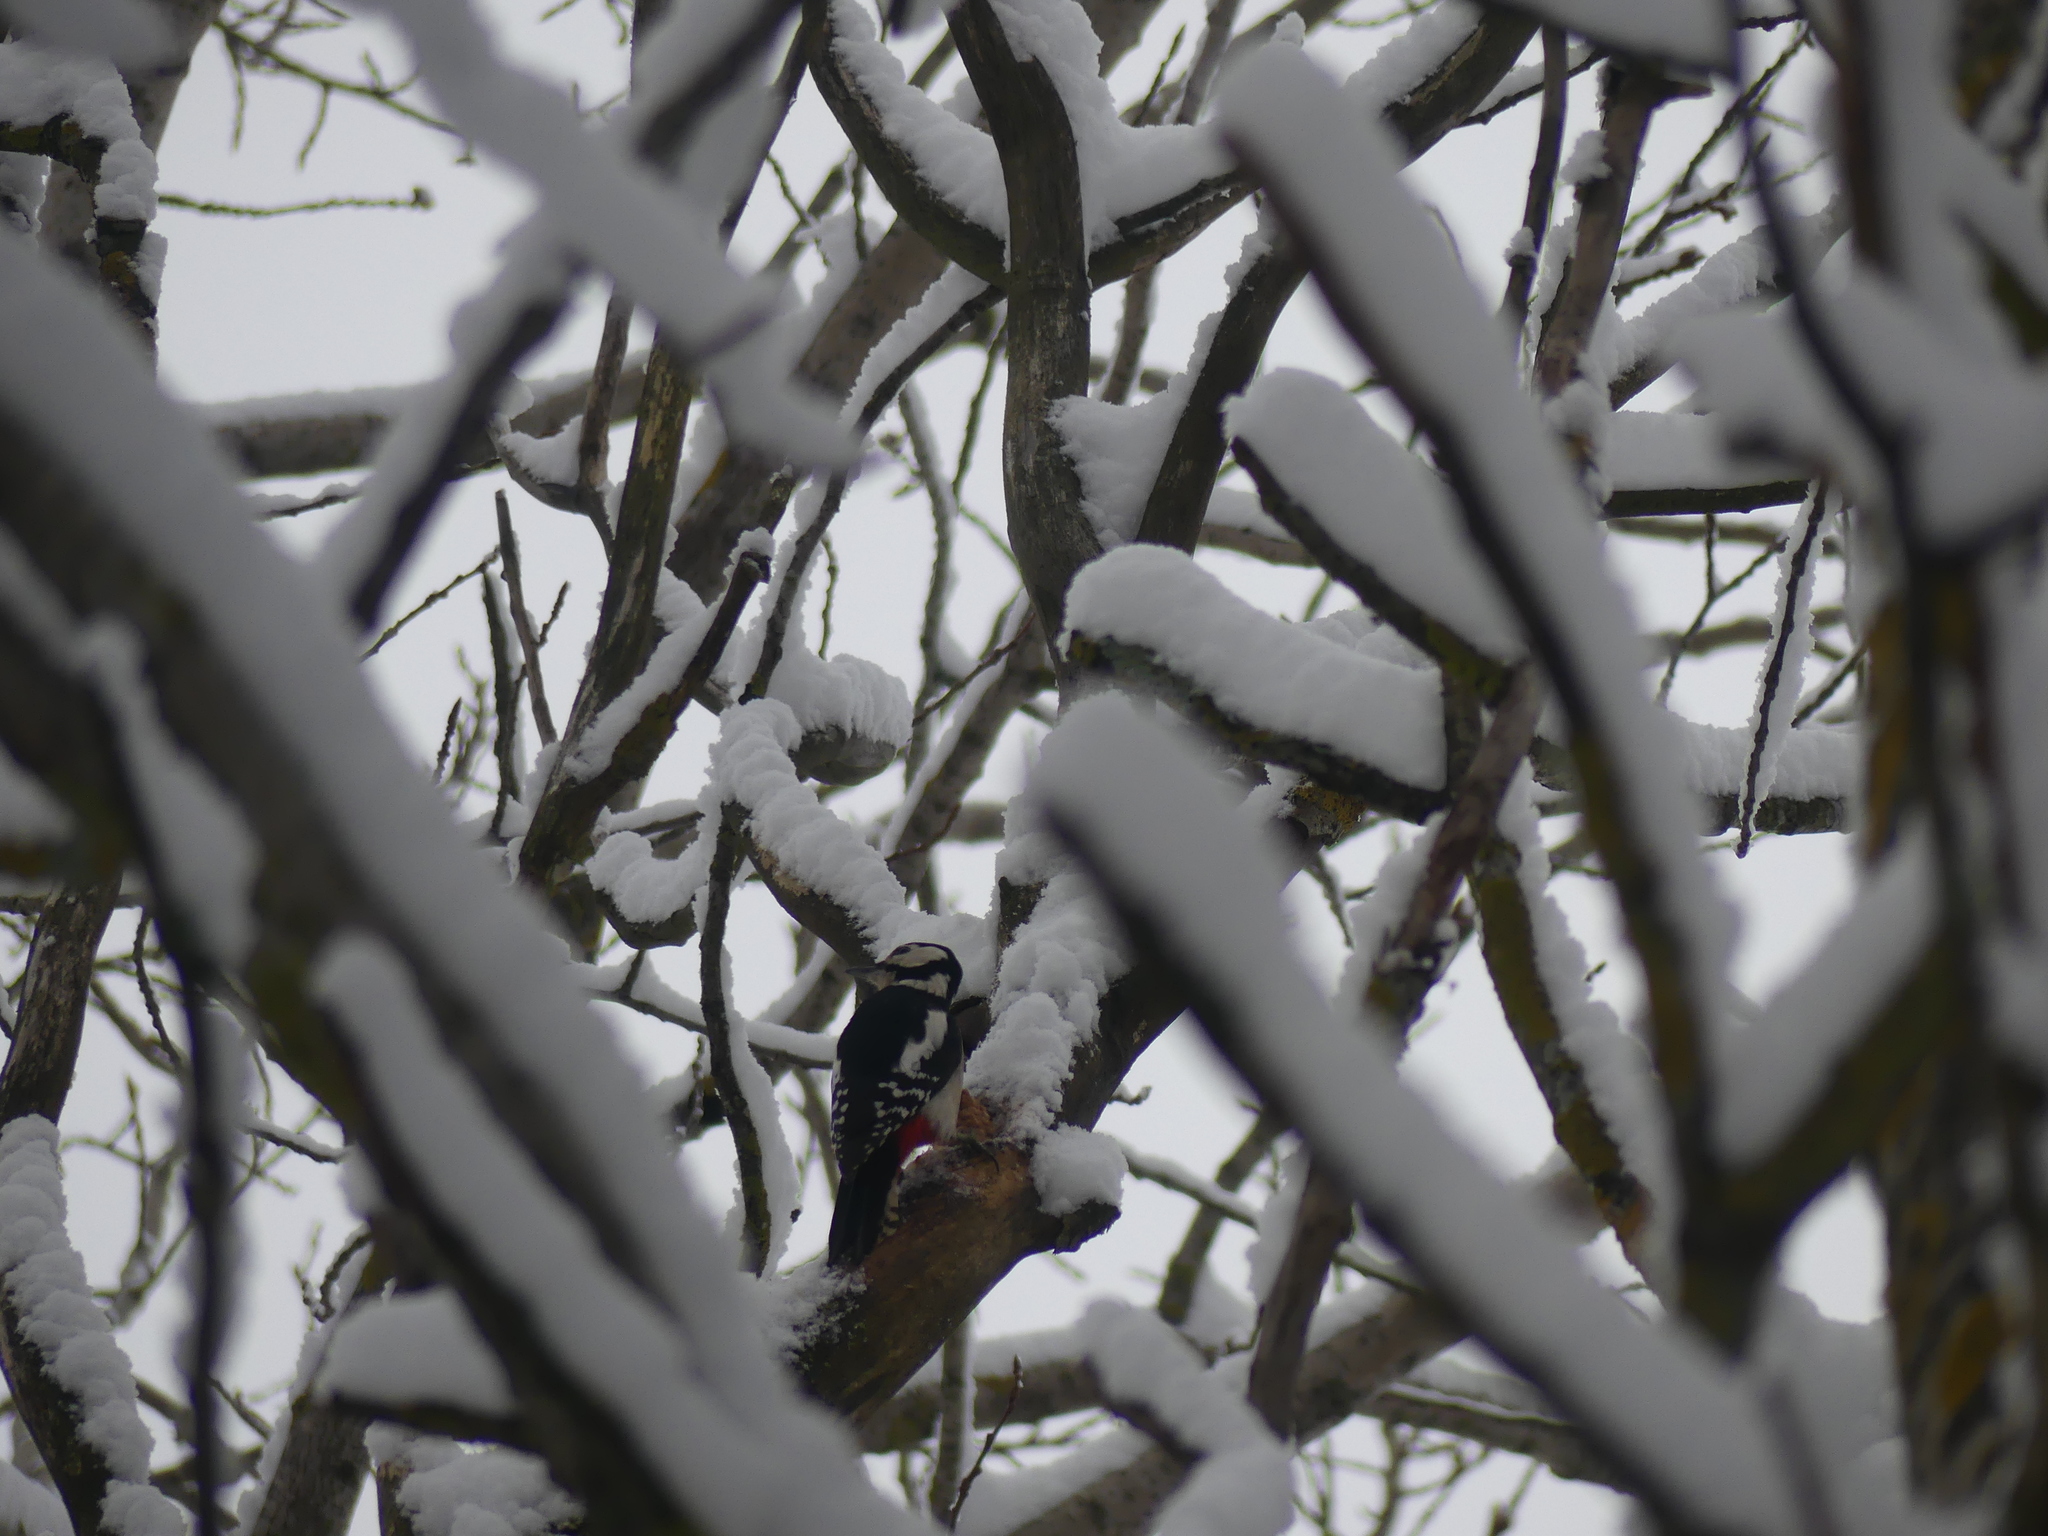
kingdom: Animalia
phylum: Chordata
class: Aves
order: Piciformes
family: Picidae
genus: Dendrocopos
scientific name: Dendrocopos major
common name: Great spotted woodpecker
